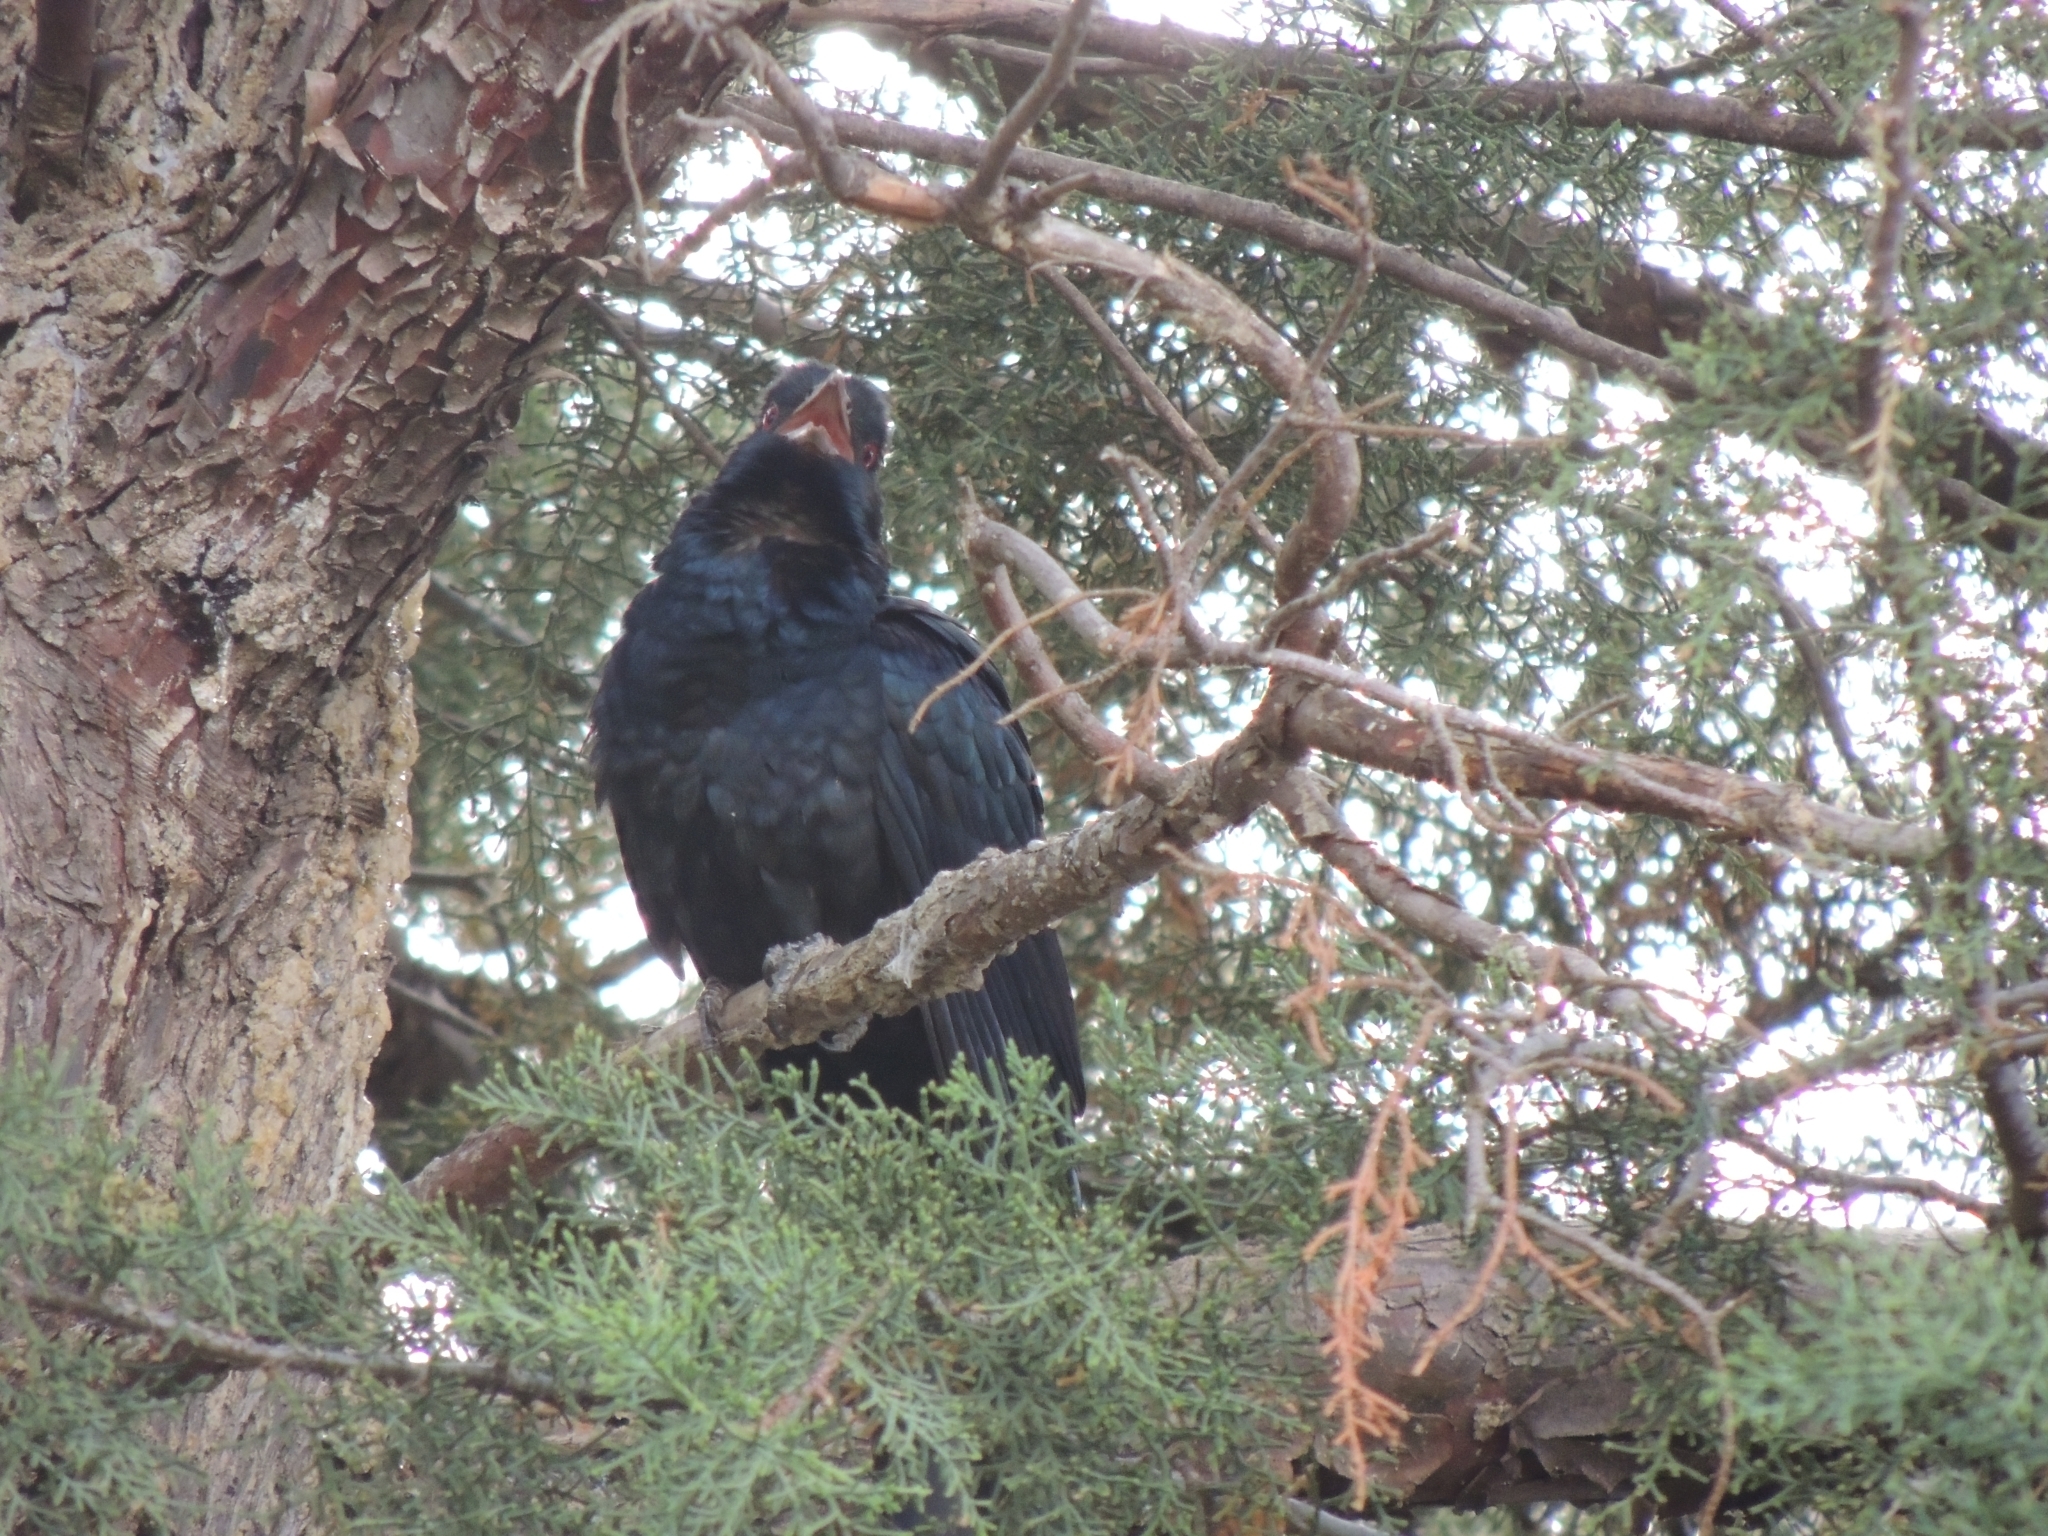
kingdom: Animalia
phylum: Chordata
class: Aves
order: Cuculiformes
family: Cuculidae
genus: Eudynamys
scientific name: Eudynamys orientalis
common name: Pacific koel
